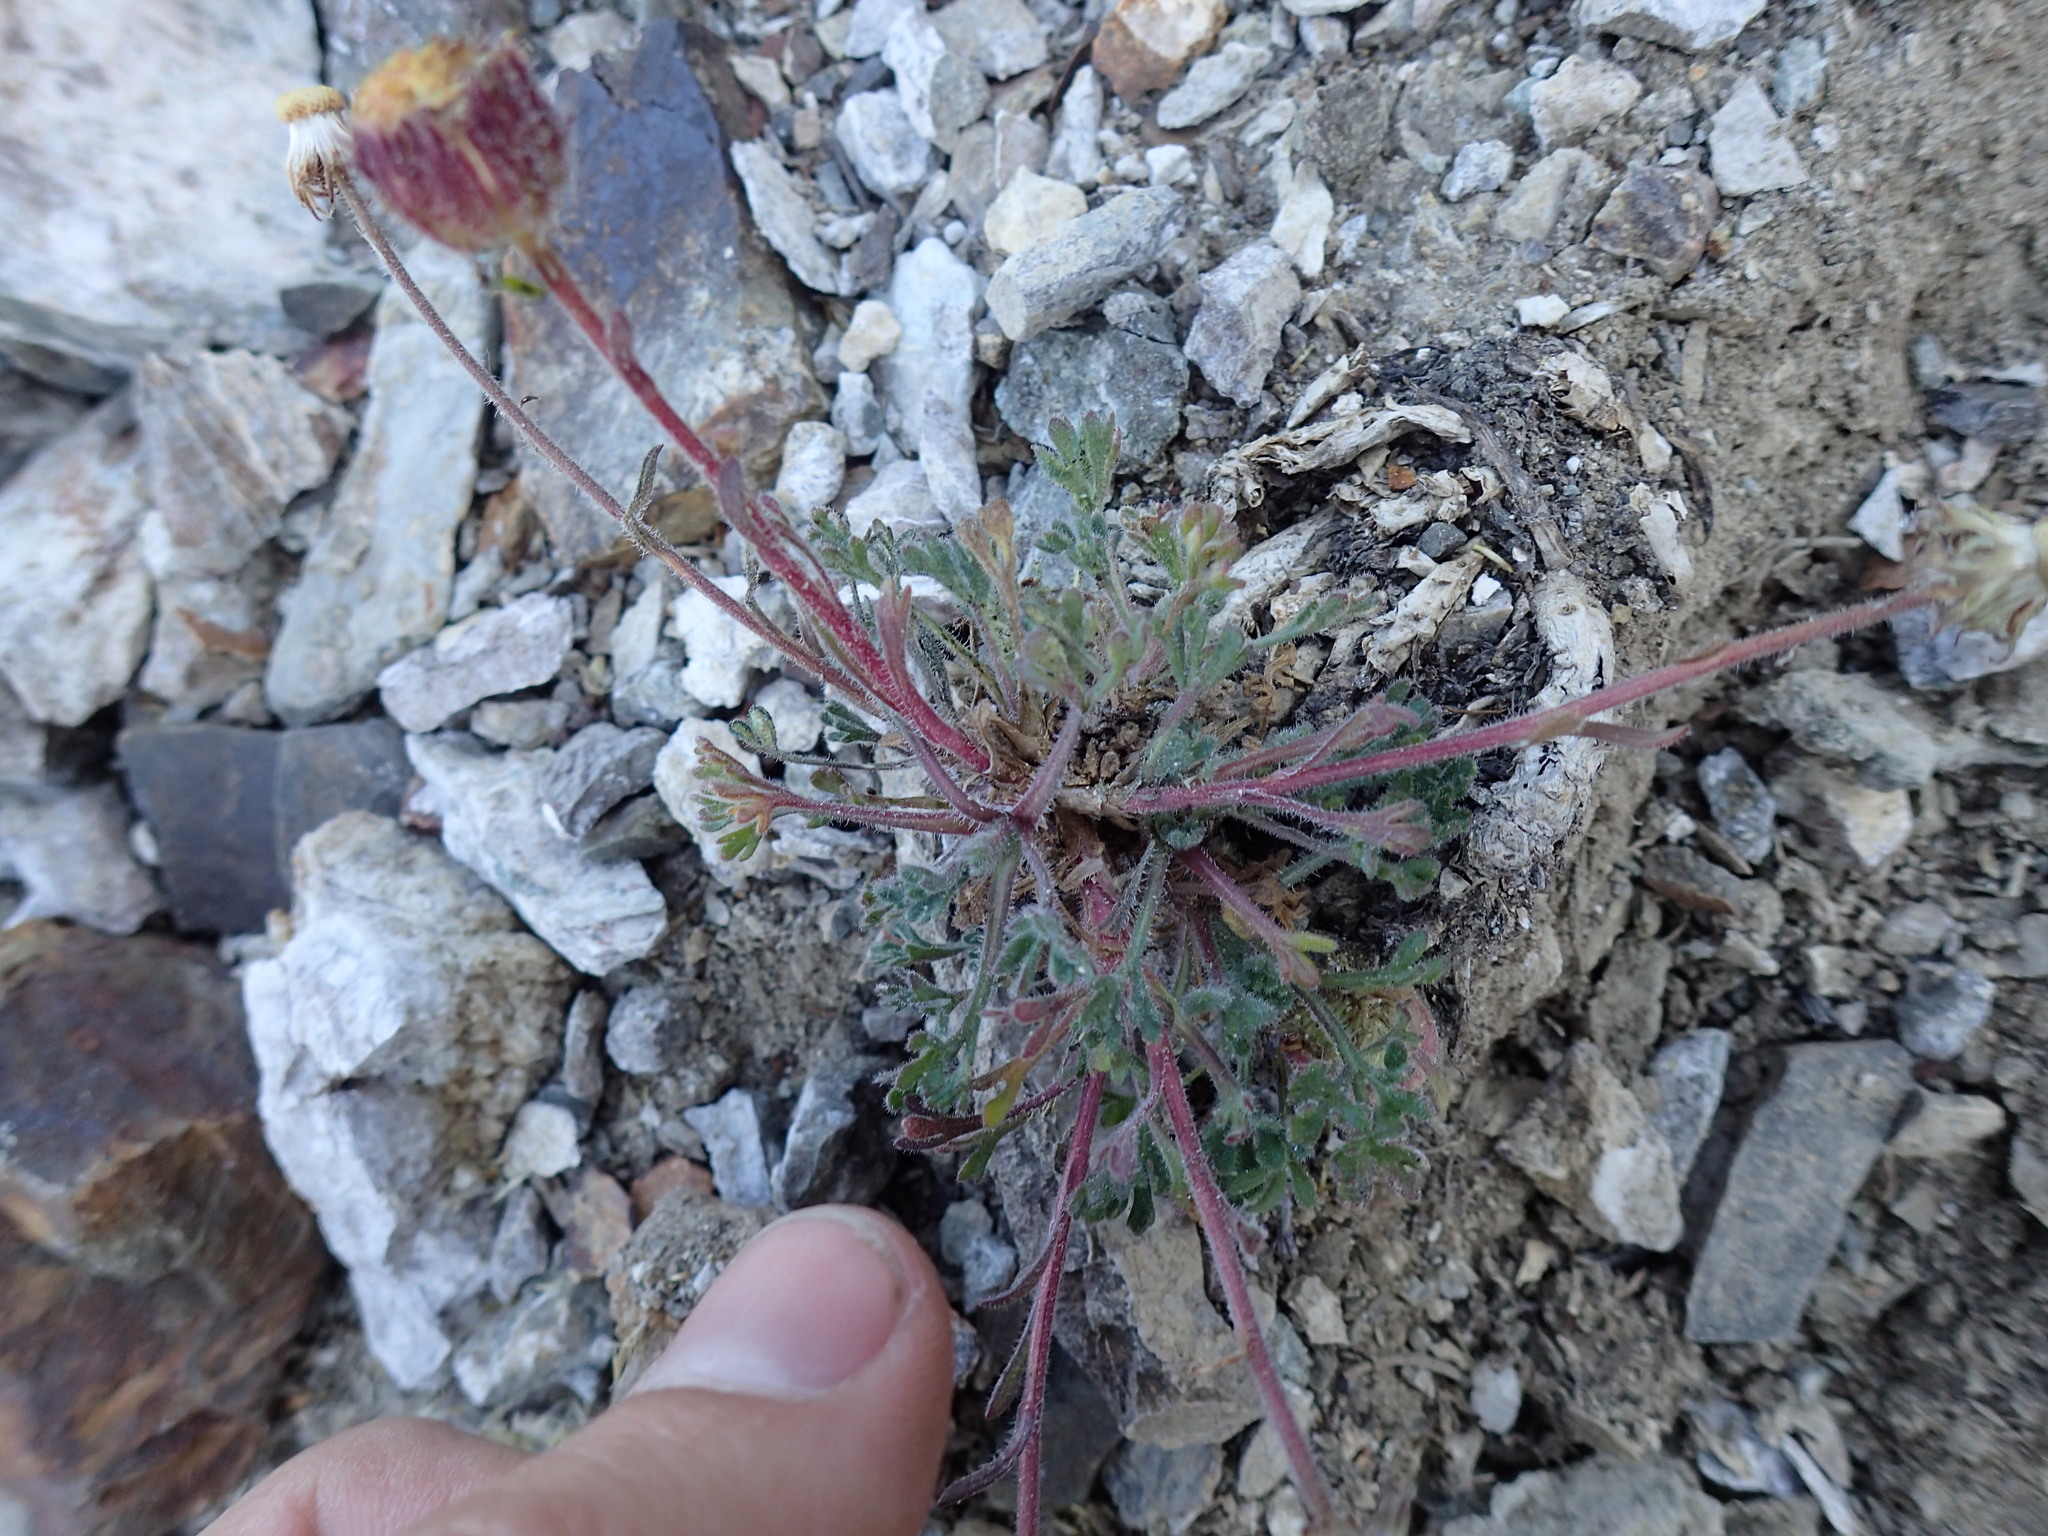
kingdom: Plantae
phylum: Tracheophyta
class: Magnoliopsida
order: Asterales
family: Asteraceae
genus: Erigeron
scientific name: Erigeron compositus
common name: Dwarf mountain fleabane
